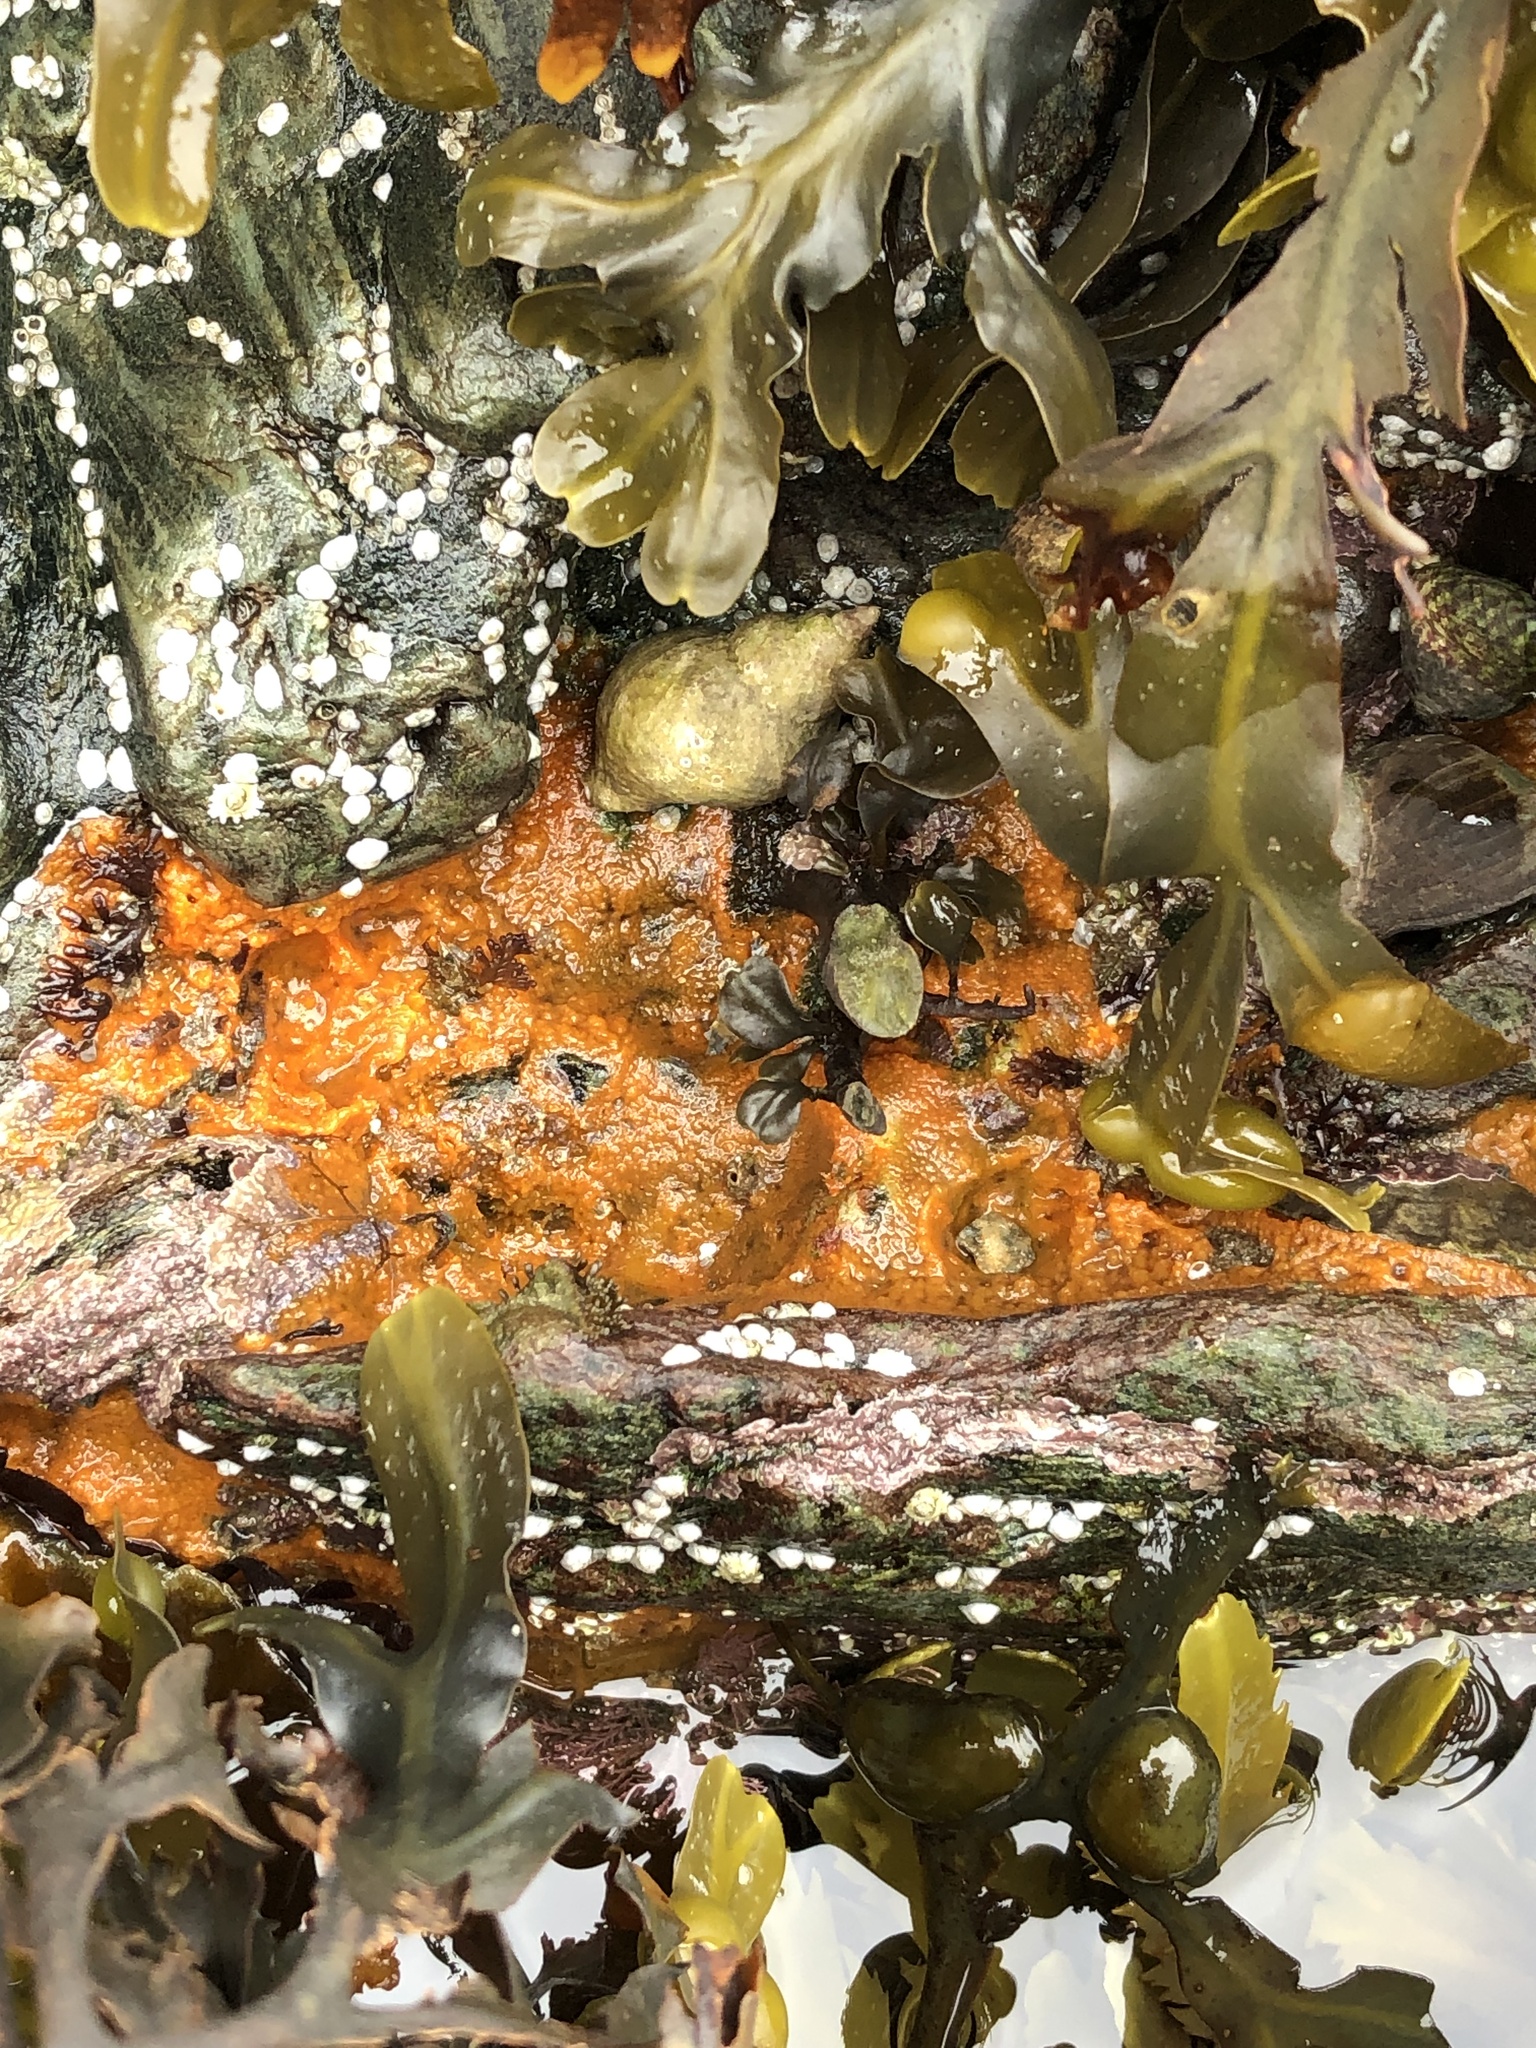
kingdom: Animalia
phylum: Porifera
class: Demospongiae
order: Suberitida
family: Halichondriidae
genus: Hymeniacidon
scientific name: Hymeniacidon perlevis
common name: Crumb-of-bread sponge
